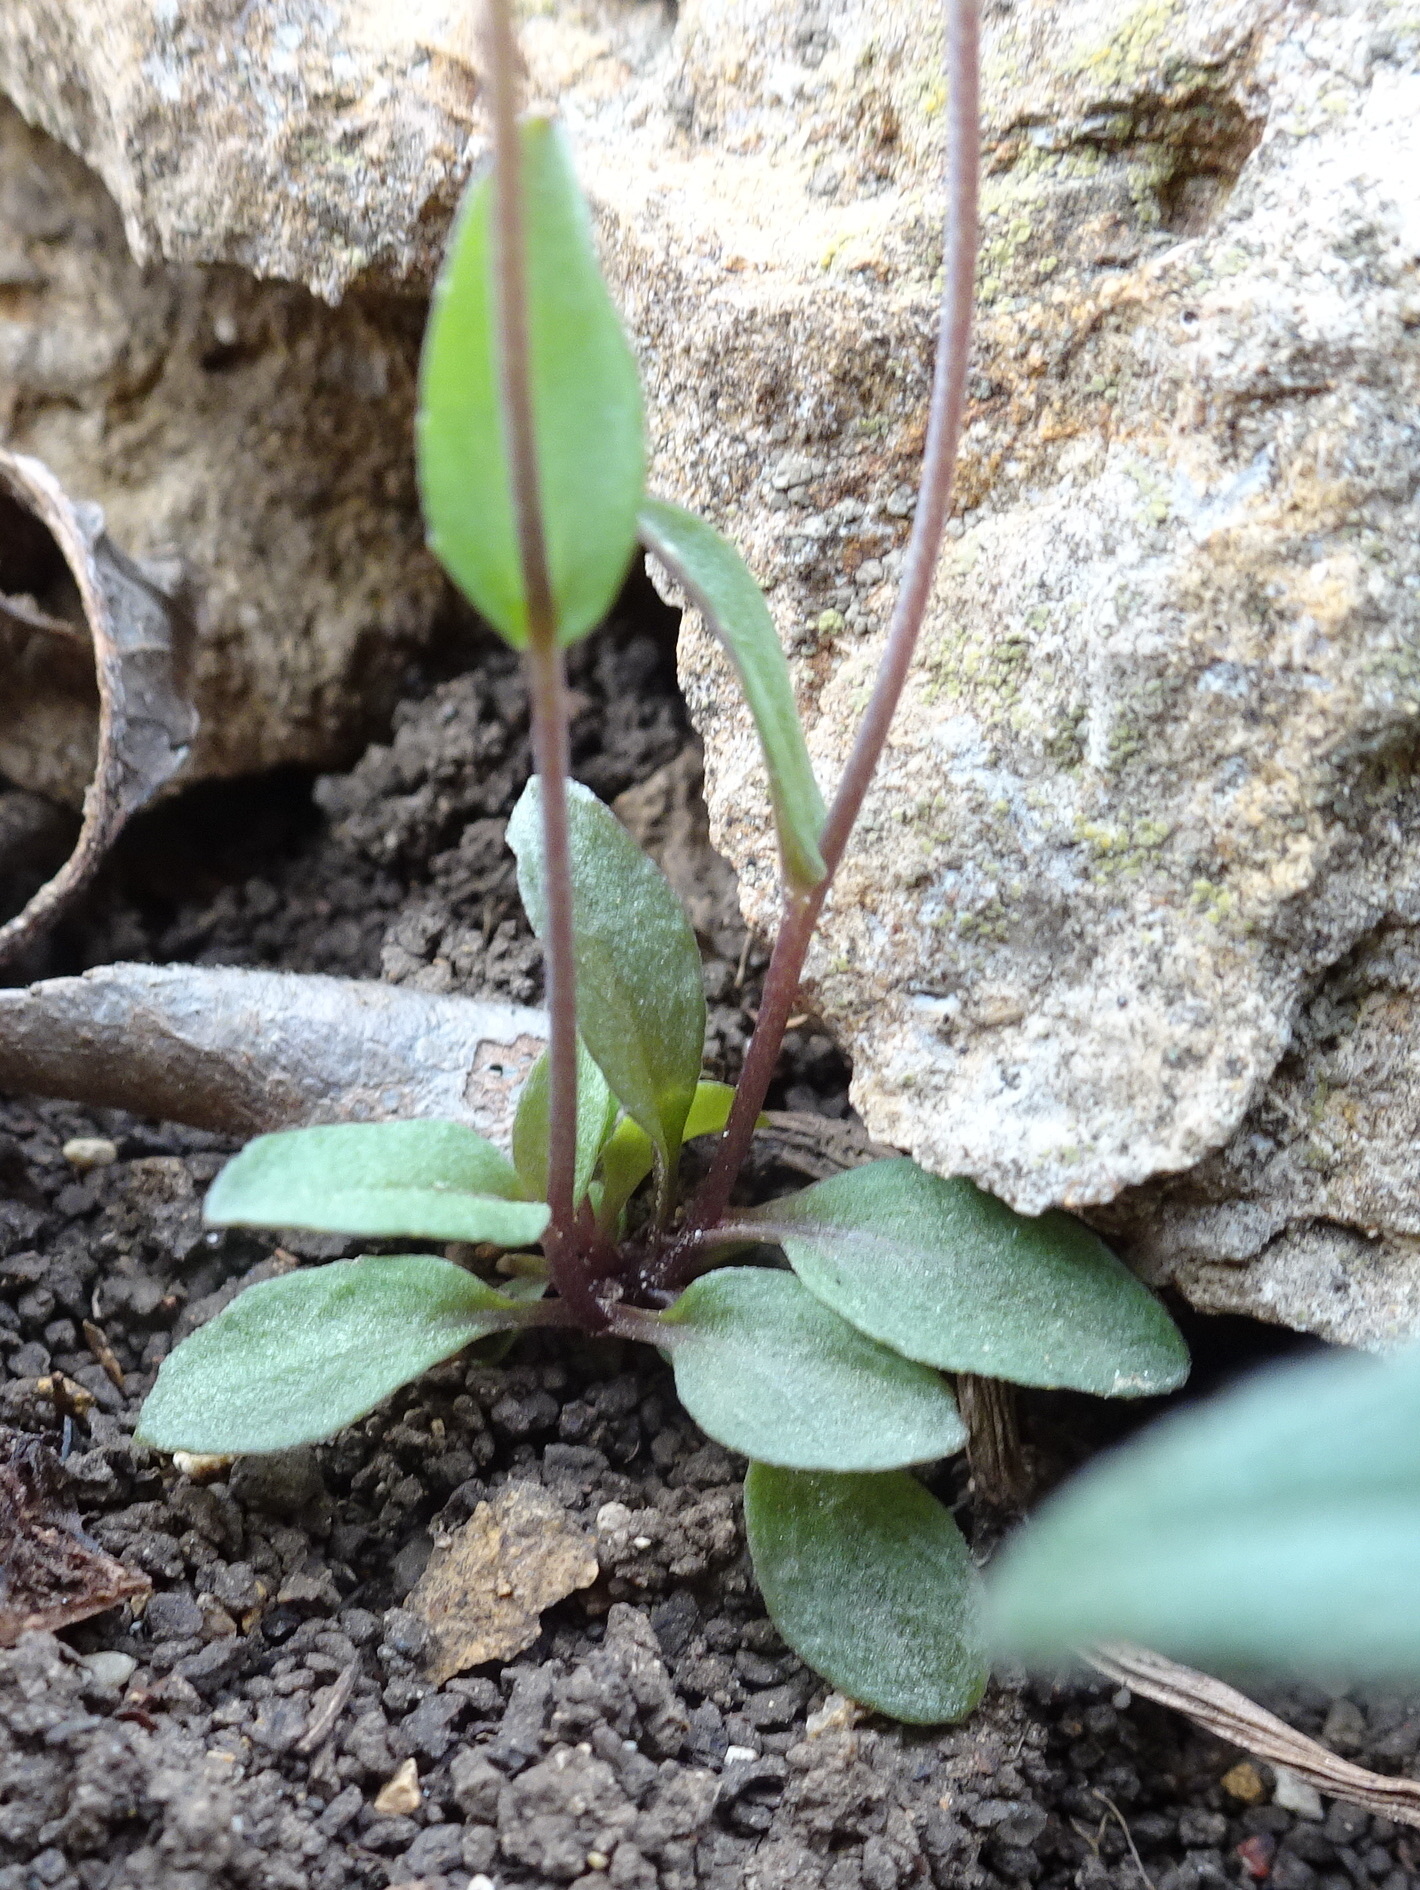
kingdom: Plantae
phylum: Tracheophyta
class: Magnoliopsida
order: Brassicales
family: Brassicaceae
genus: Noccaea
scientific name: Noccaea perfoliata
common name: Perfoliate pennycress
